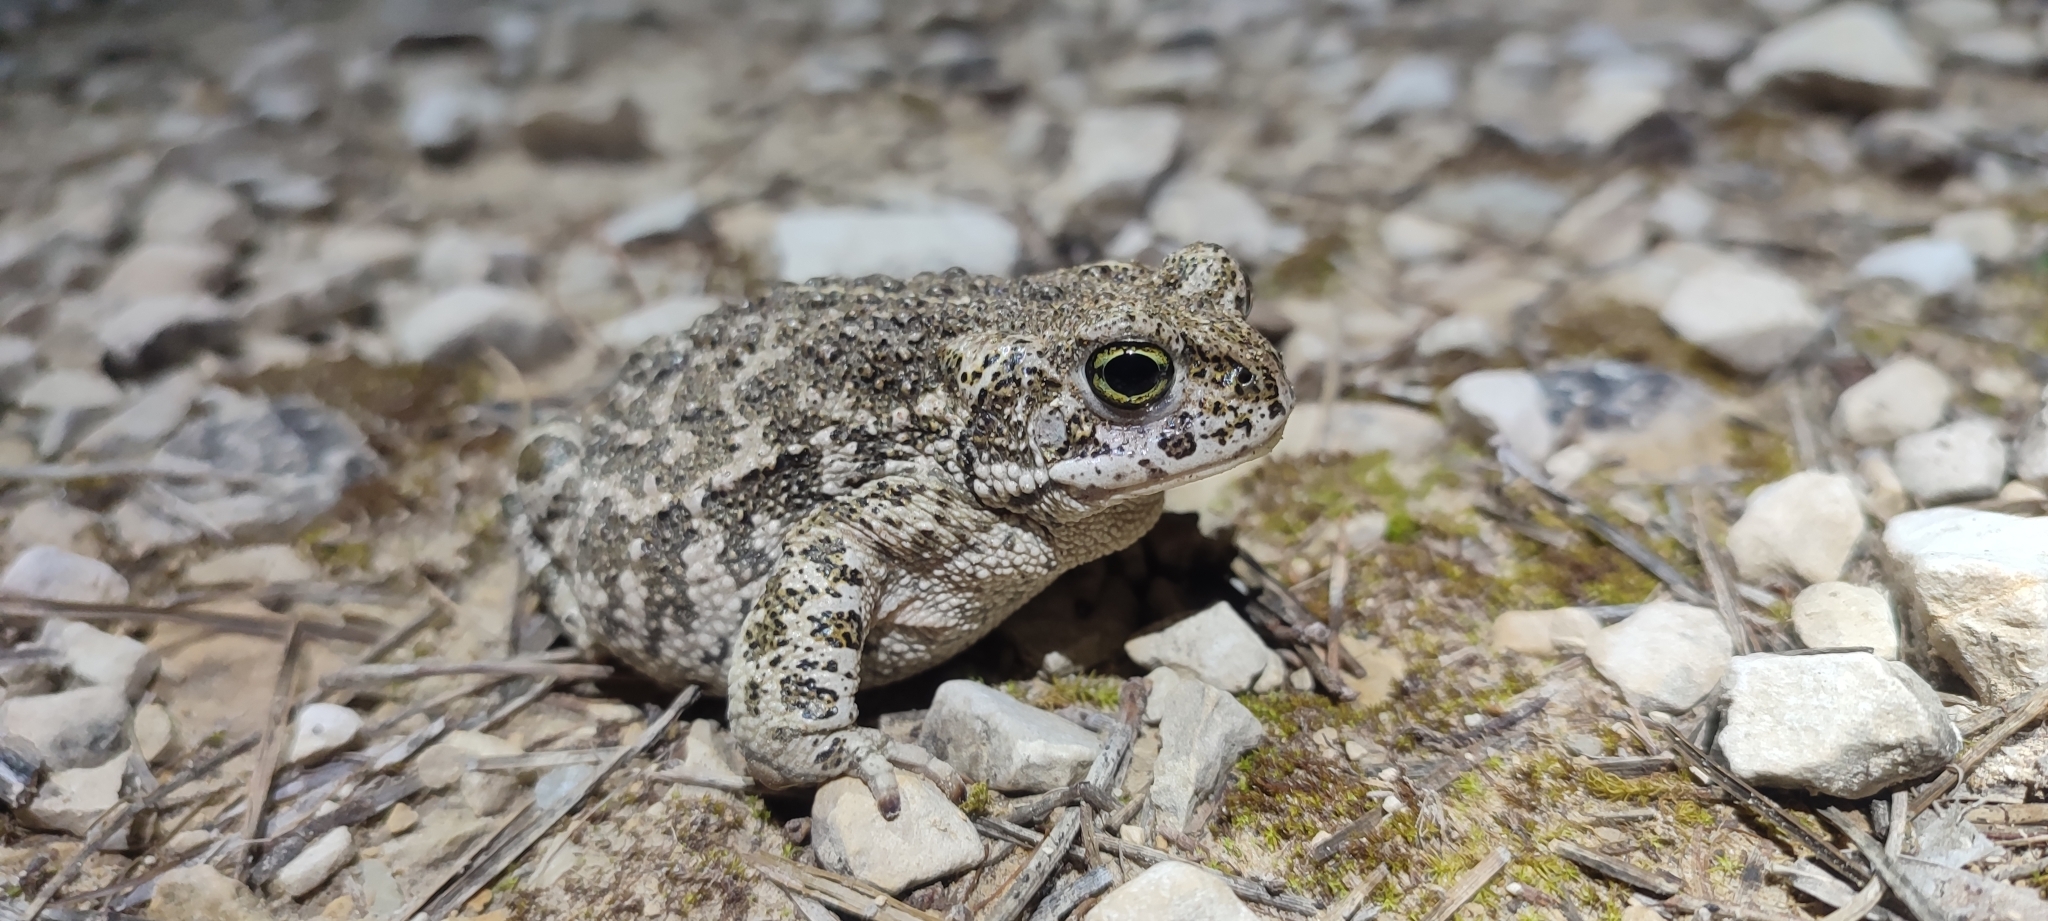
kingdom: Animalia
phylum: Chordata
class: Amphibia
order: Anura
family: Bufonidae
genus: Epidalea
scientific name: Epidalea calamita
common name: Natterjack toad
